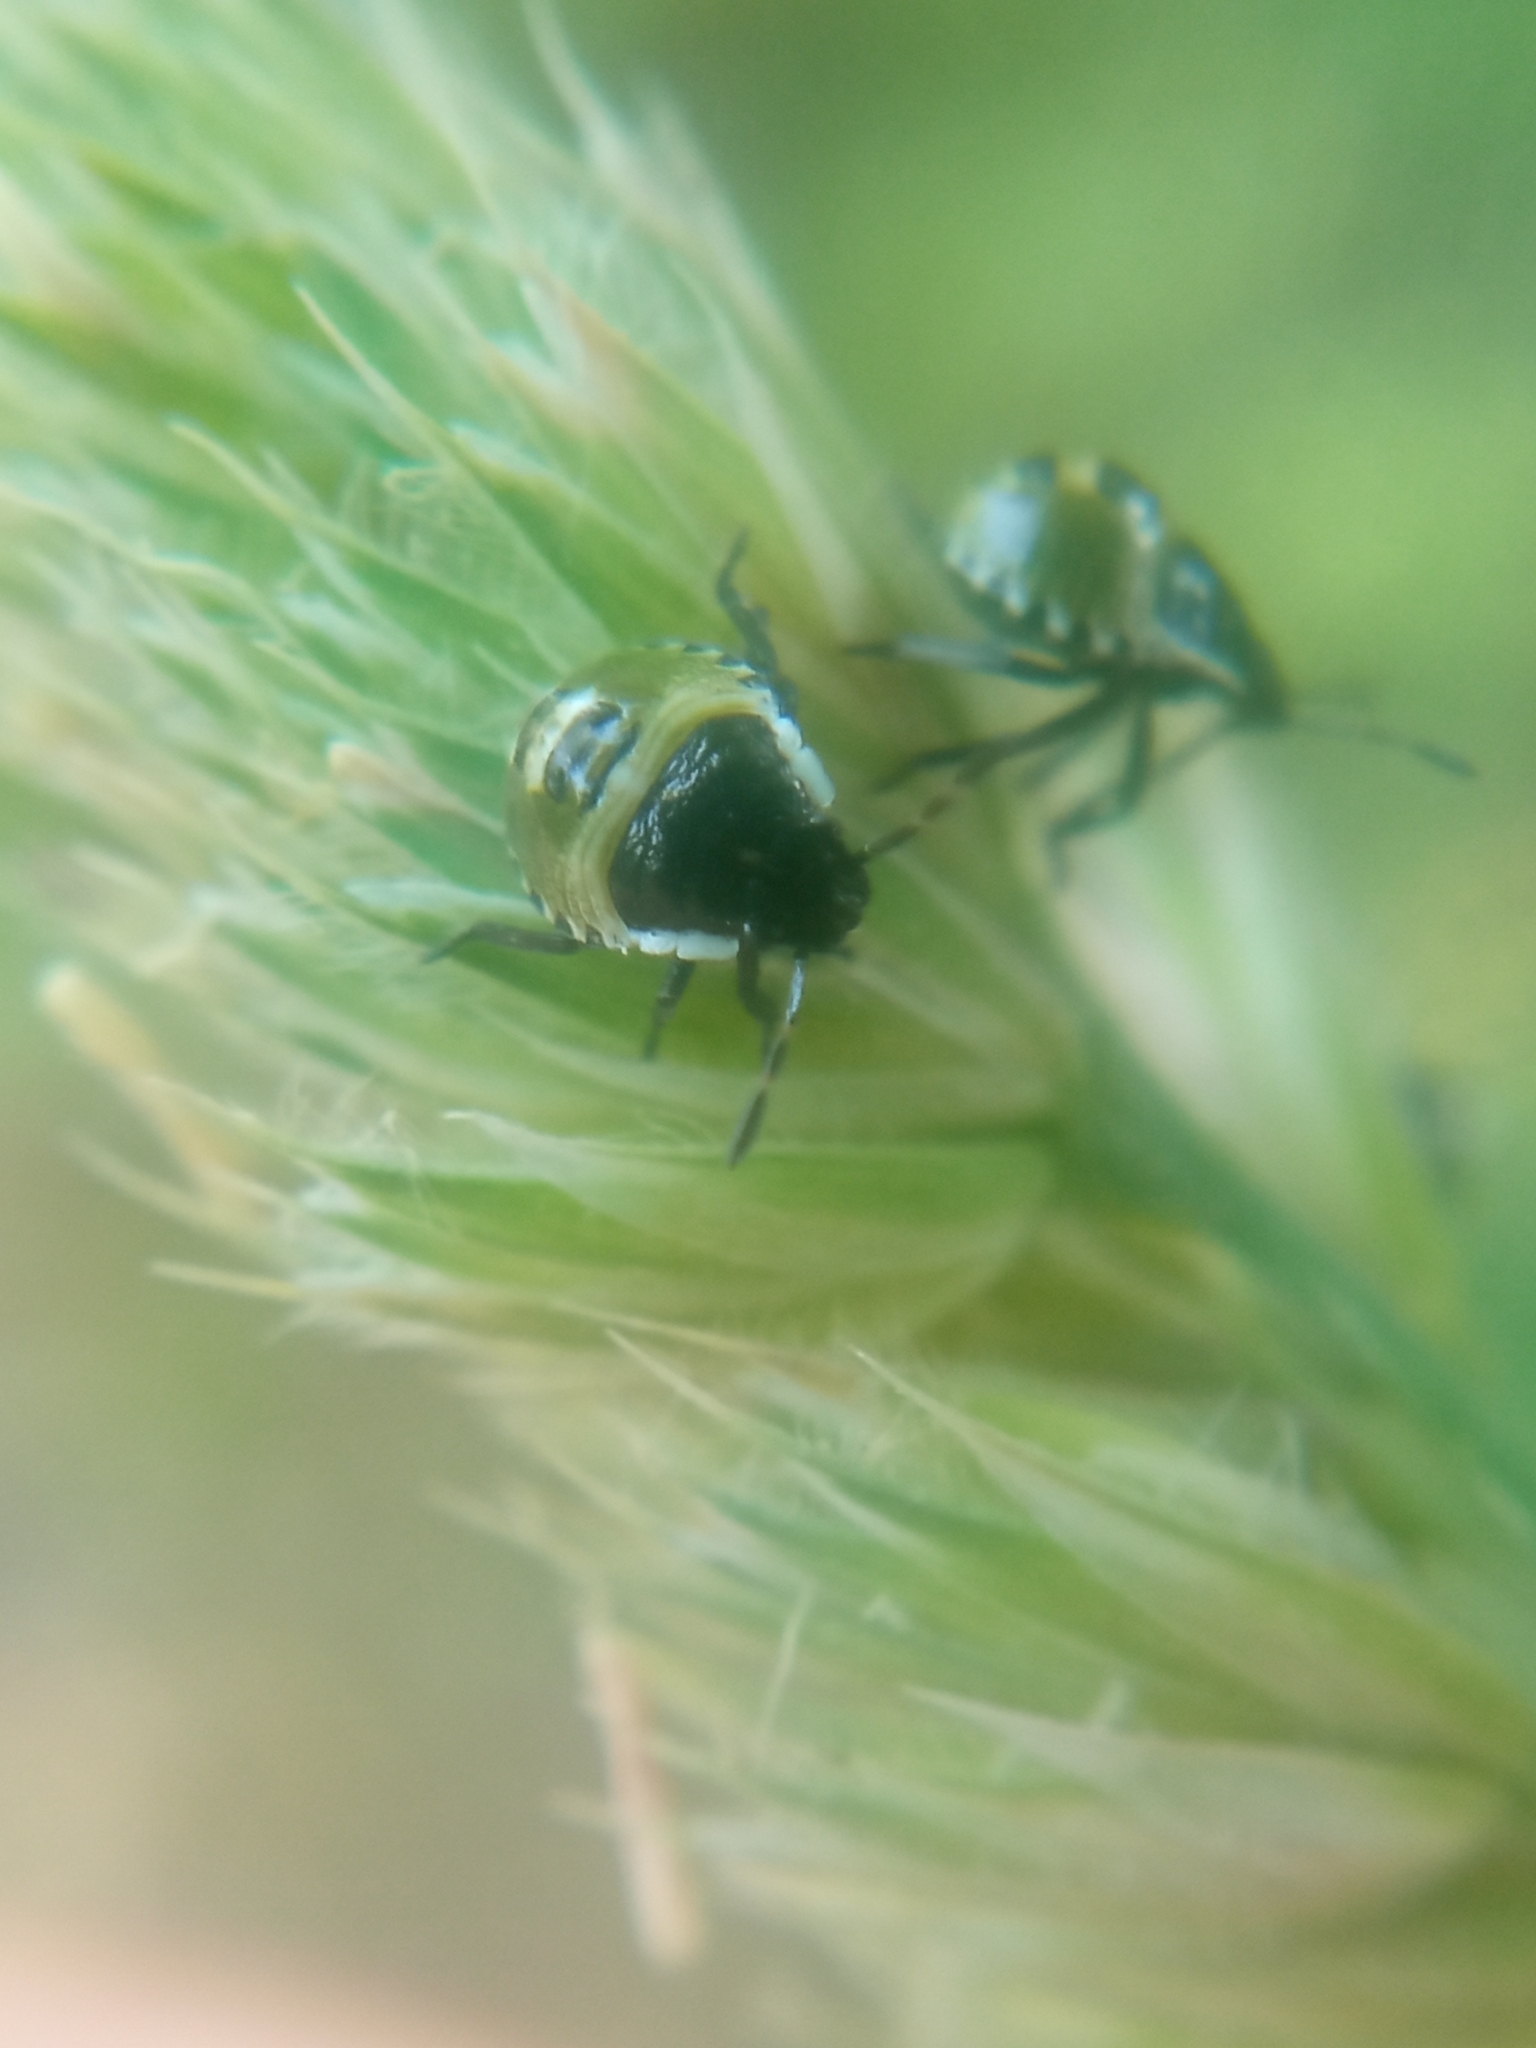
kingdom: Animalia
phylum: Arthropoda
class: Insecta
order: Hemiptera
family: Pentatomidae
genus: Palomena
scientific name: Palomena prasina
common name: Green shieldbug
